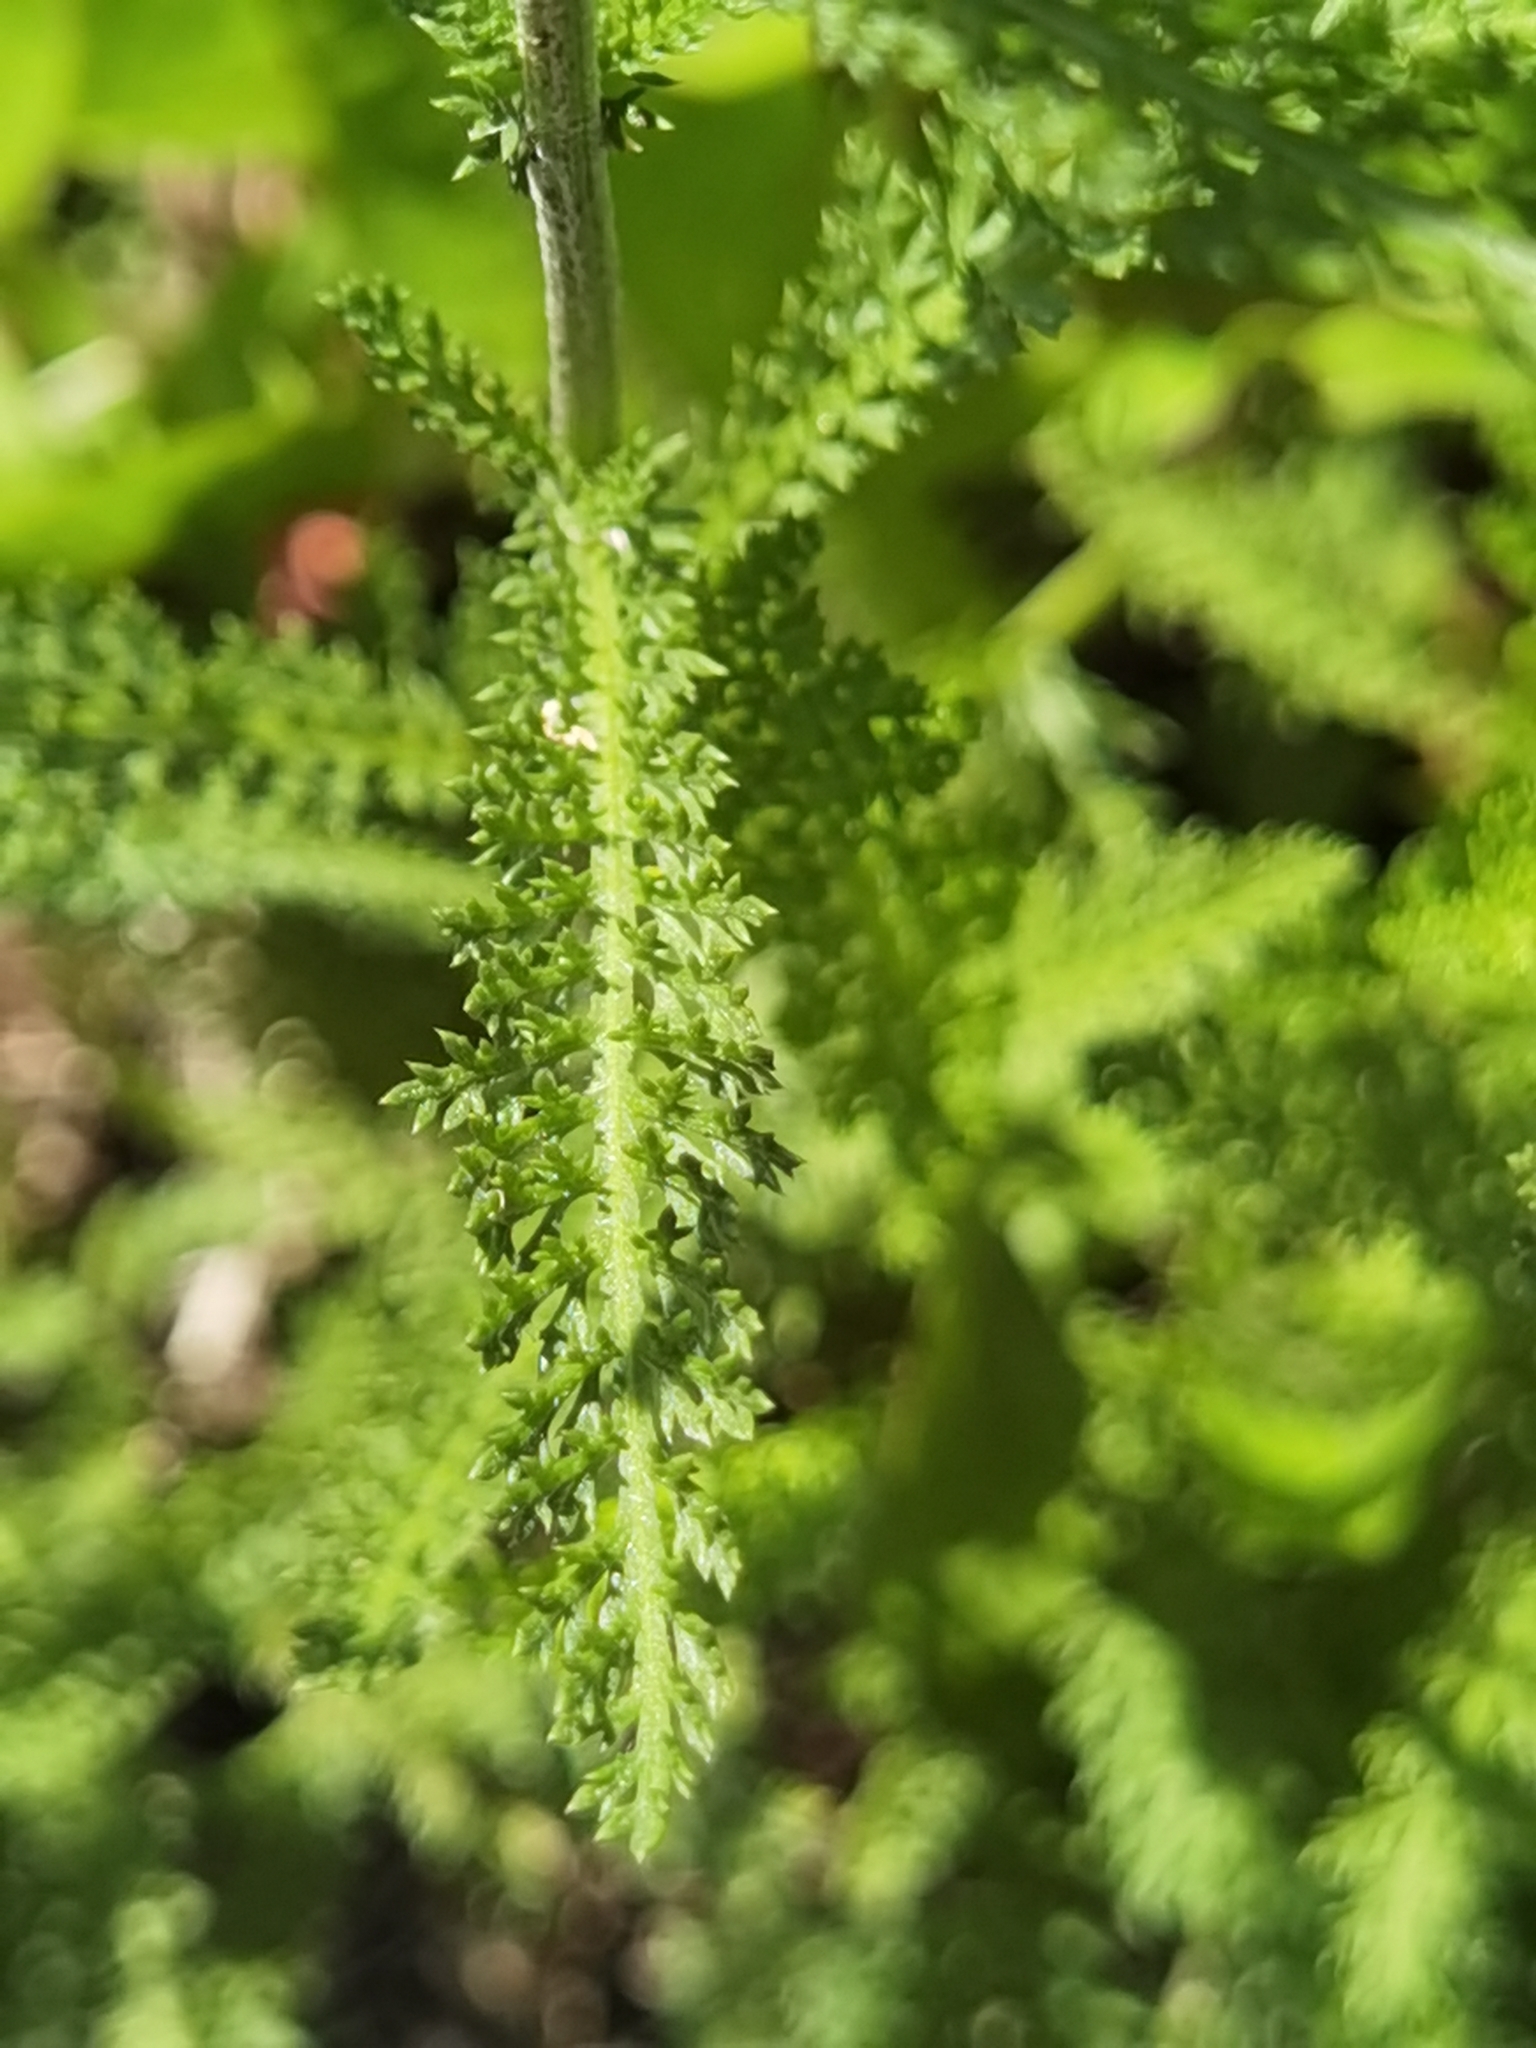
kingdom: Plantae
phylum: Tracheophyta
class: Magnoliopsida
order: Asterales
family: Asteraceae
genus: Achillea
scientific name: Achillea millefolium
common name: Yarrow
